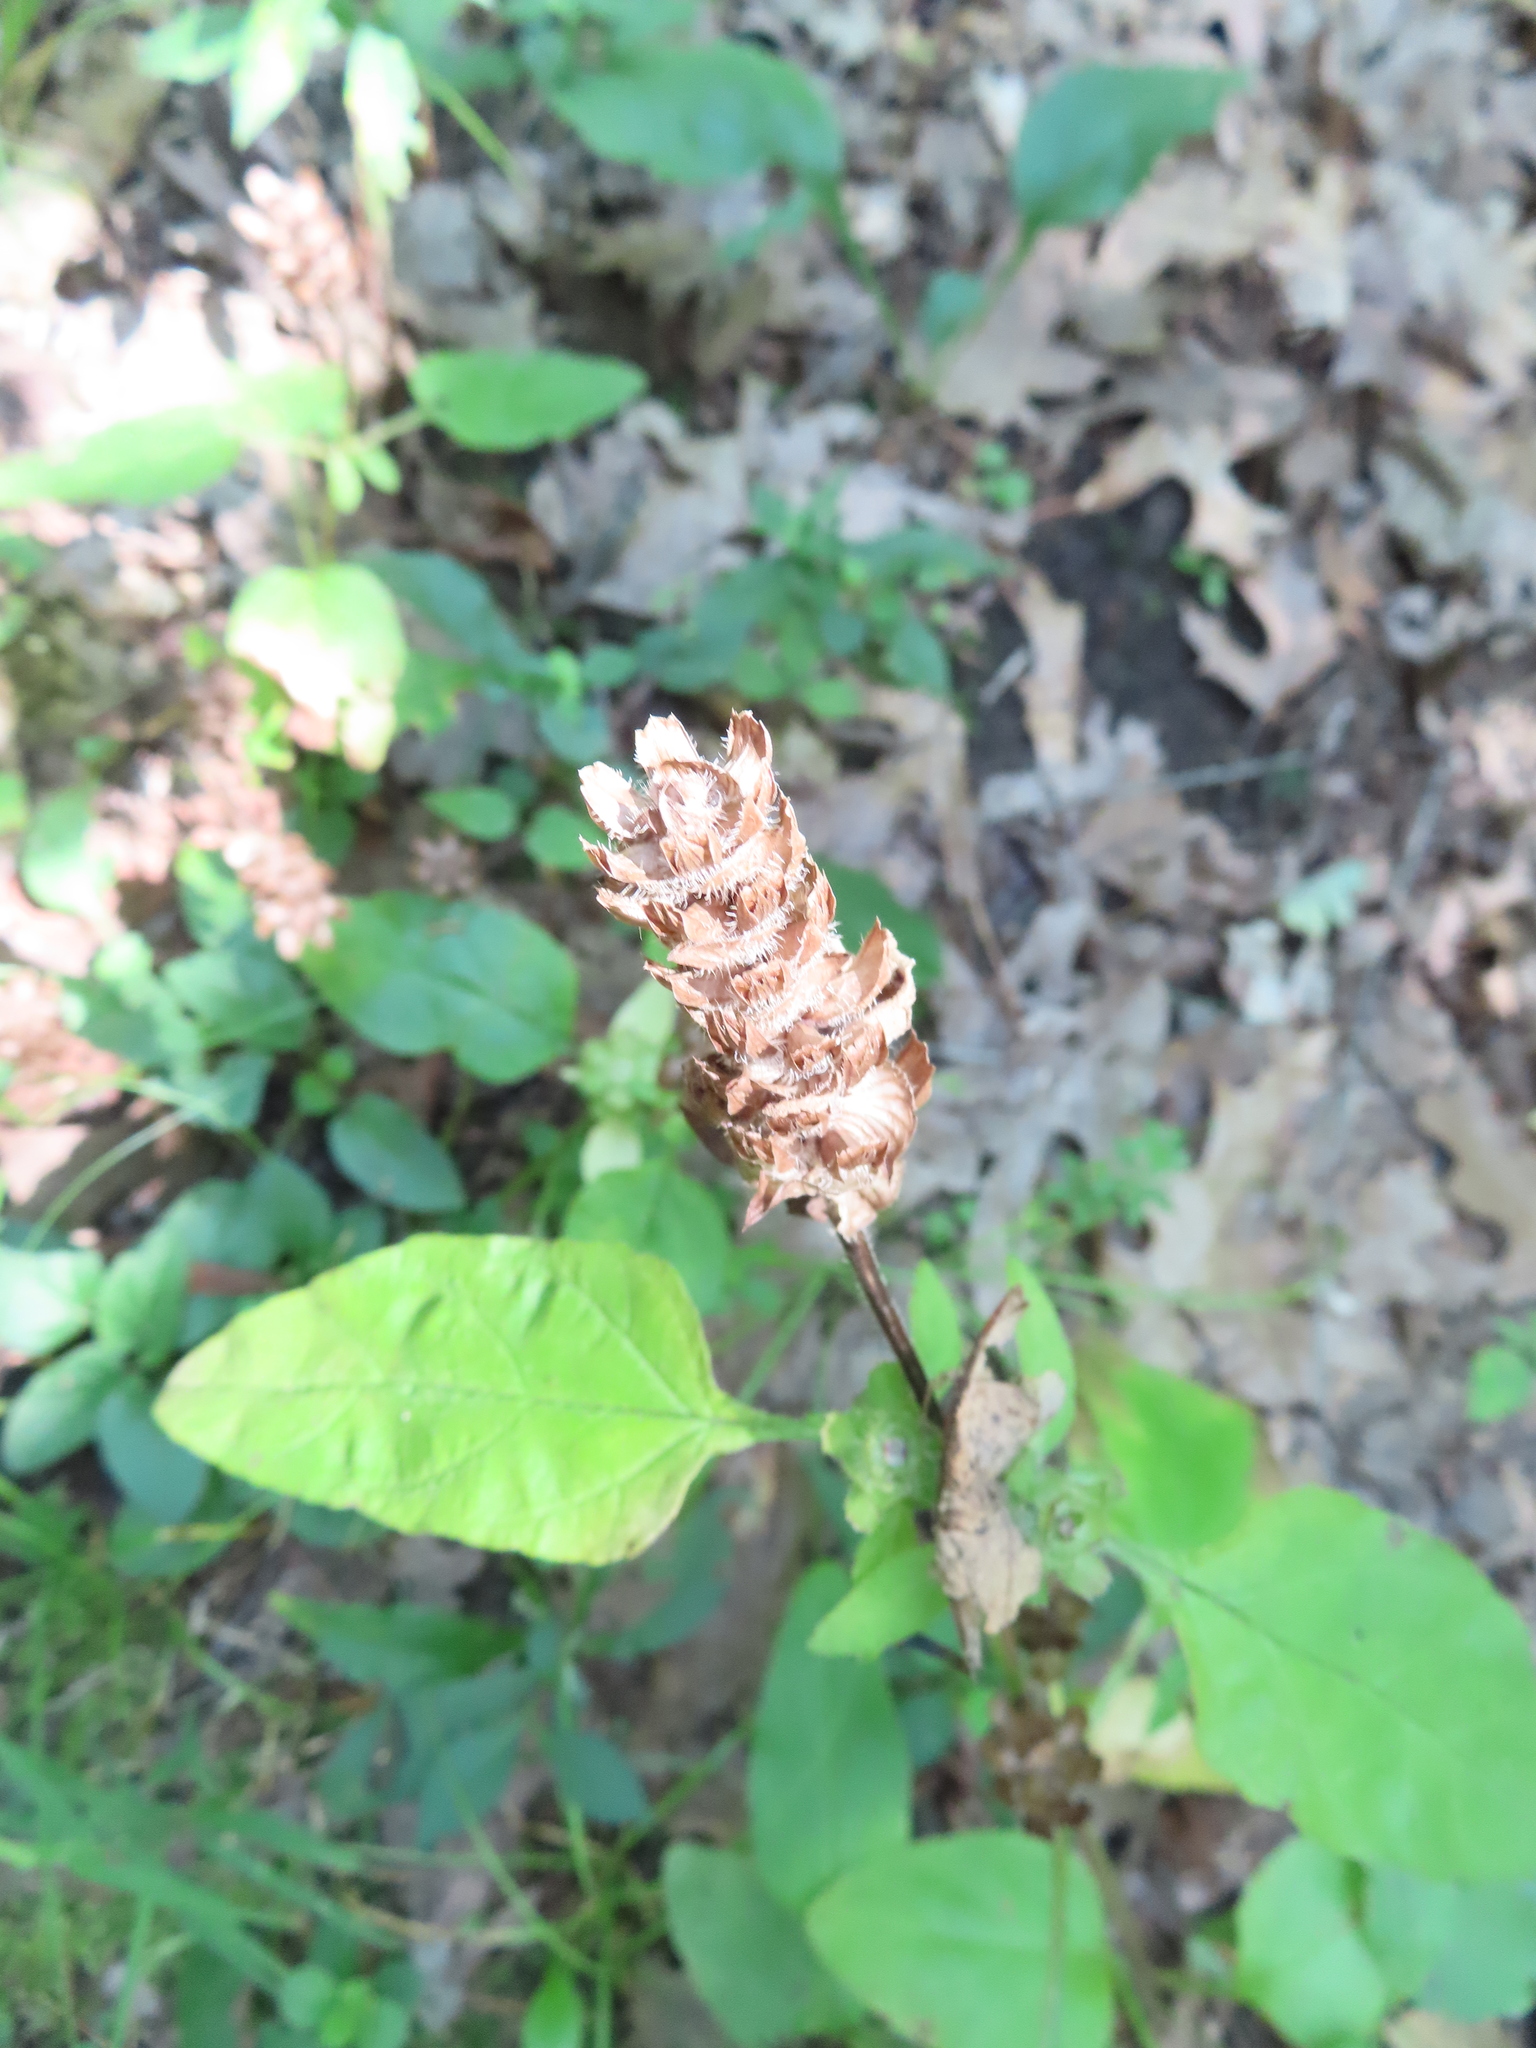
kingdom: Plantae
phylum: Tracheophyta
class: Magnoliopsida
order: Lamiales
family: Lamiaceae
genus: Prunella
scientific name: Prunella vulgaris
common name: Heal-all
